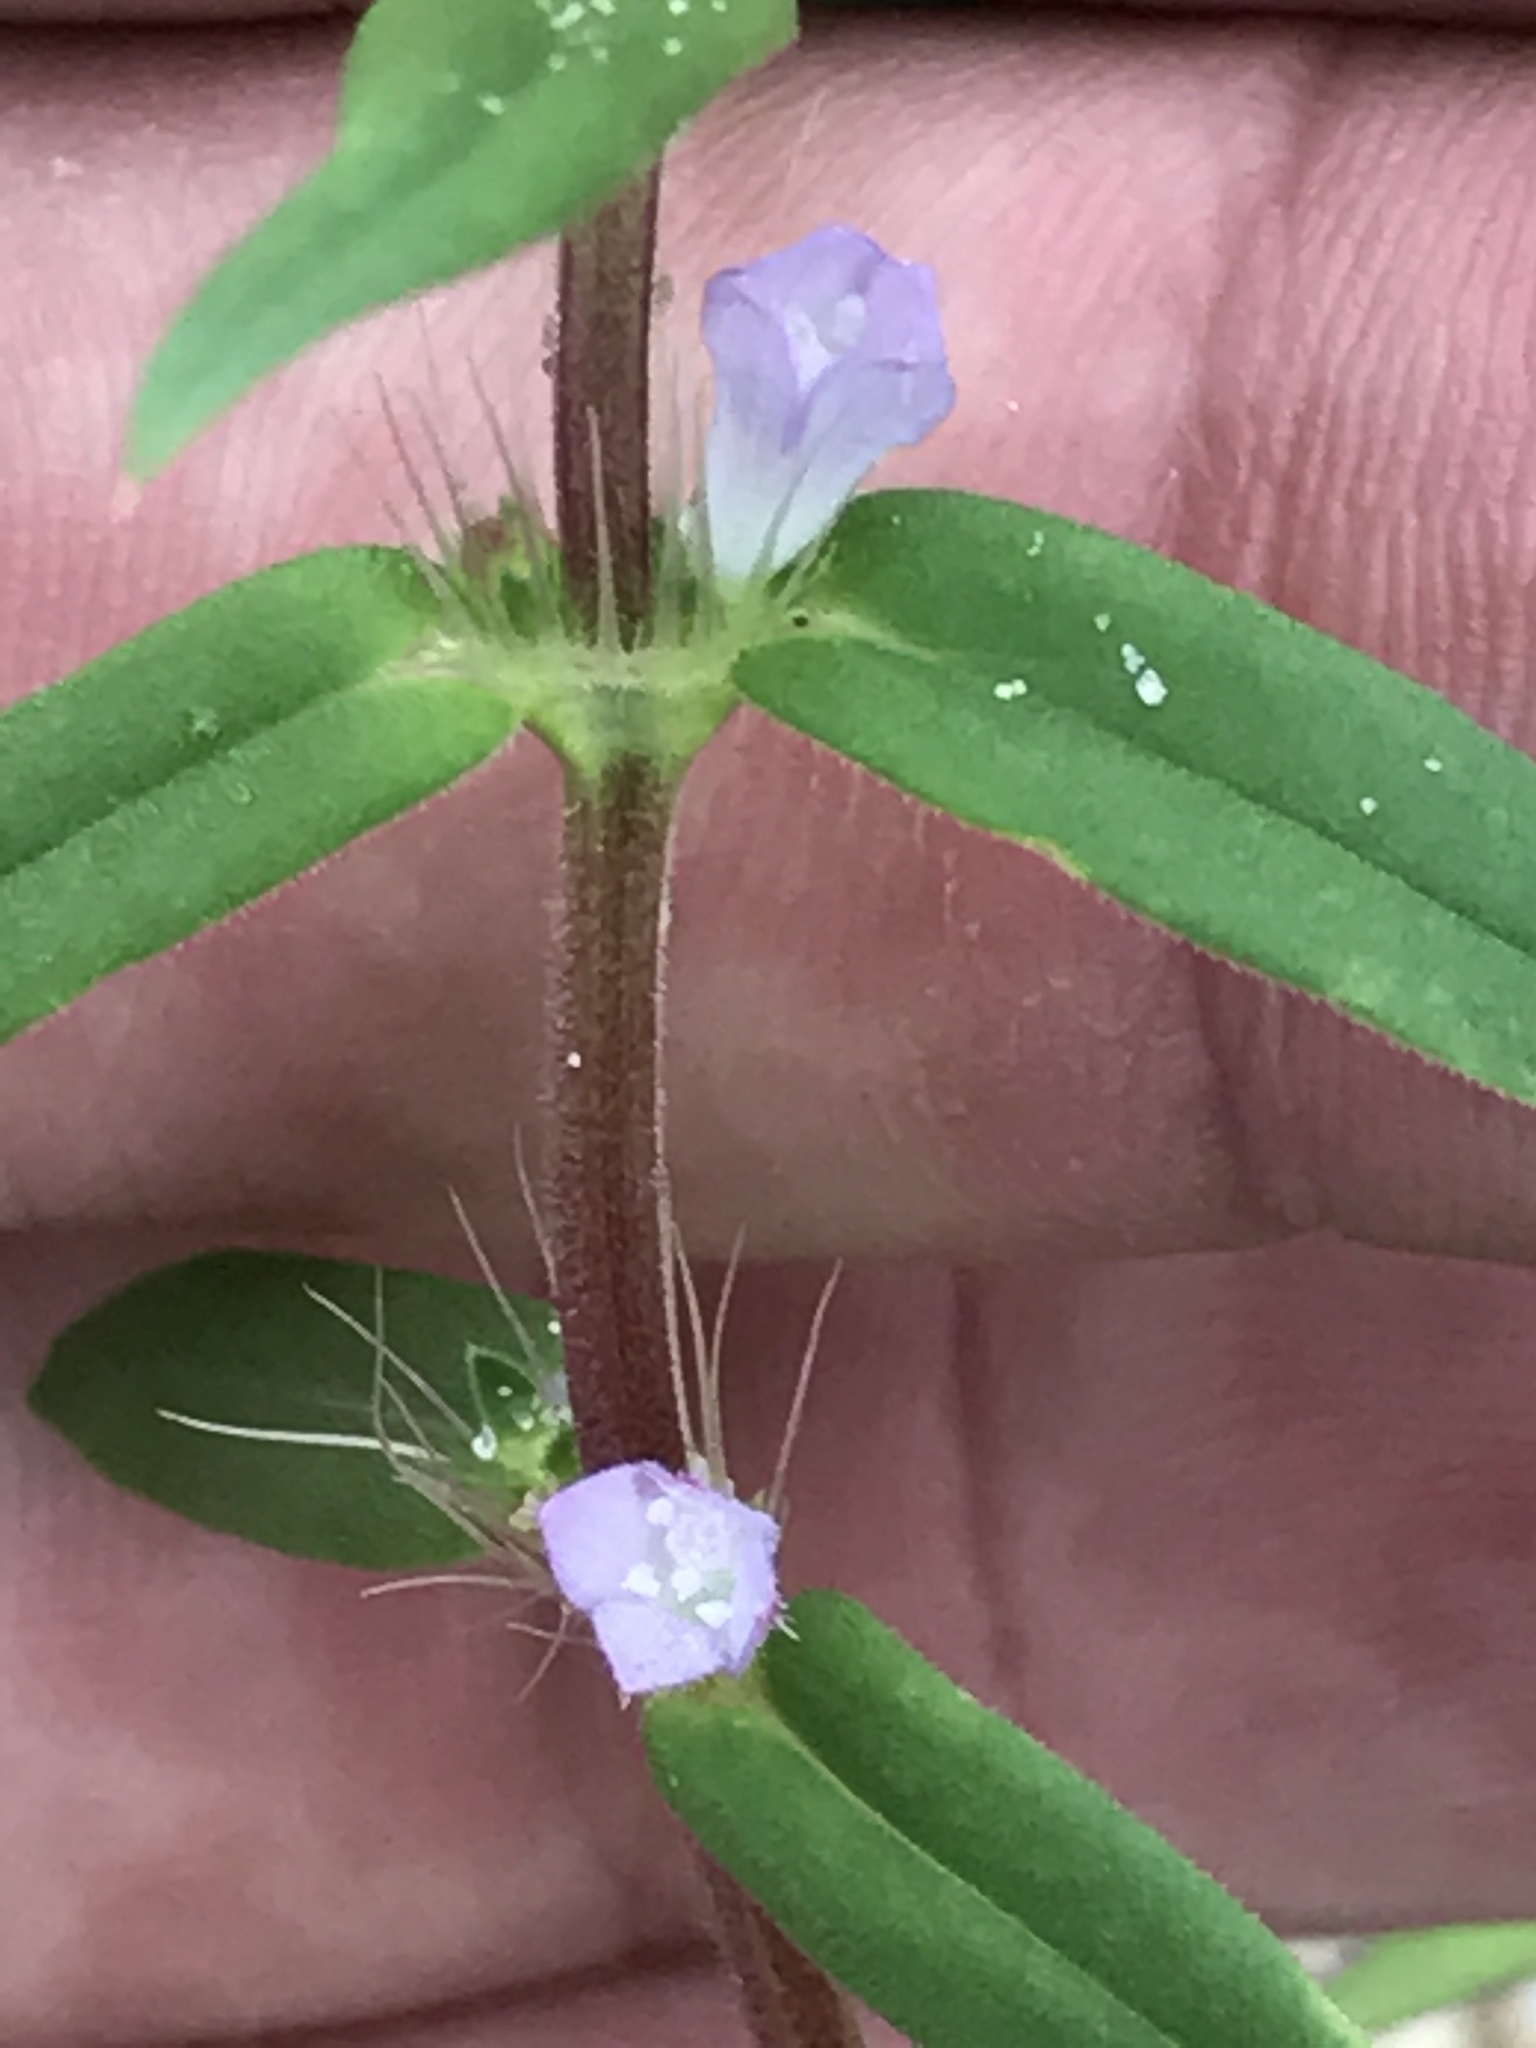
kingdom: Plantae
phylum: Tracheophyta
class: Magnoliopsida
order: Gentianales
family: Rubiaceae
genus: Hexasepalum
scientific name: Hexasepalum teres
